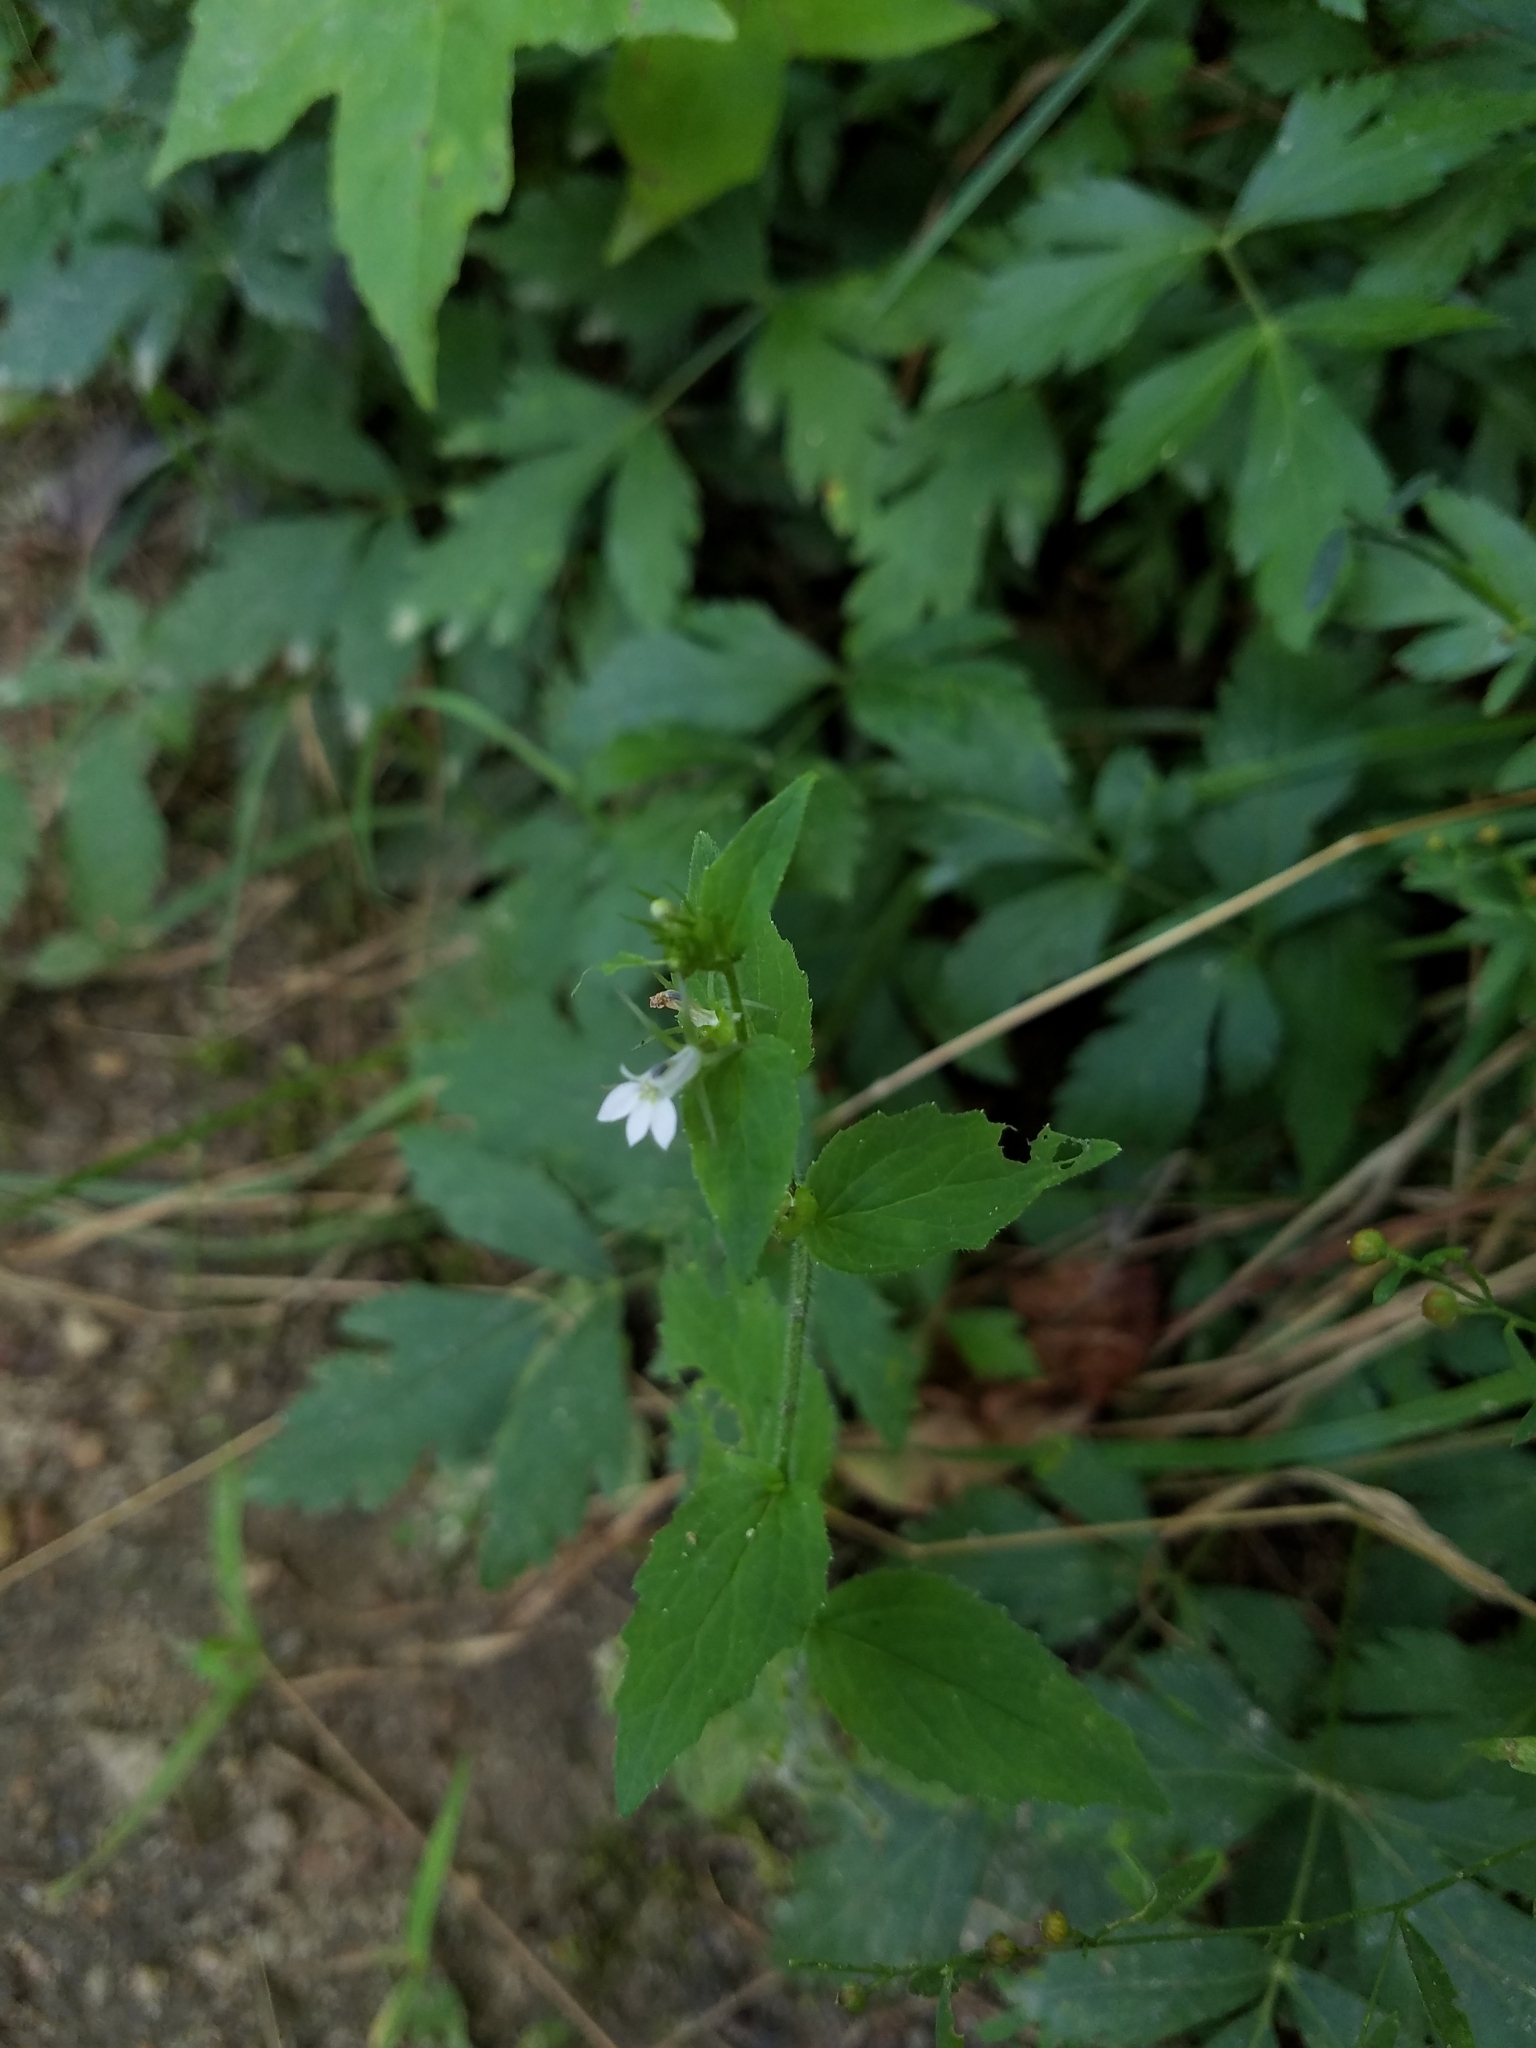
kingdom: Plantae
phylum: Tracheophyta
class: Magnoliopsida
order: Asterales
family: Campanulaceae
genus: Lobelia
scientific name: Lobelia inflata
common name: Indian tobacco
